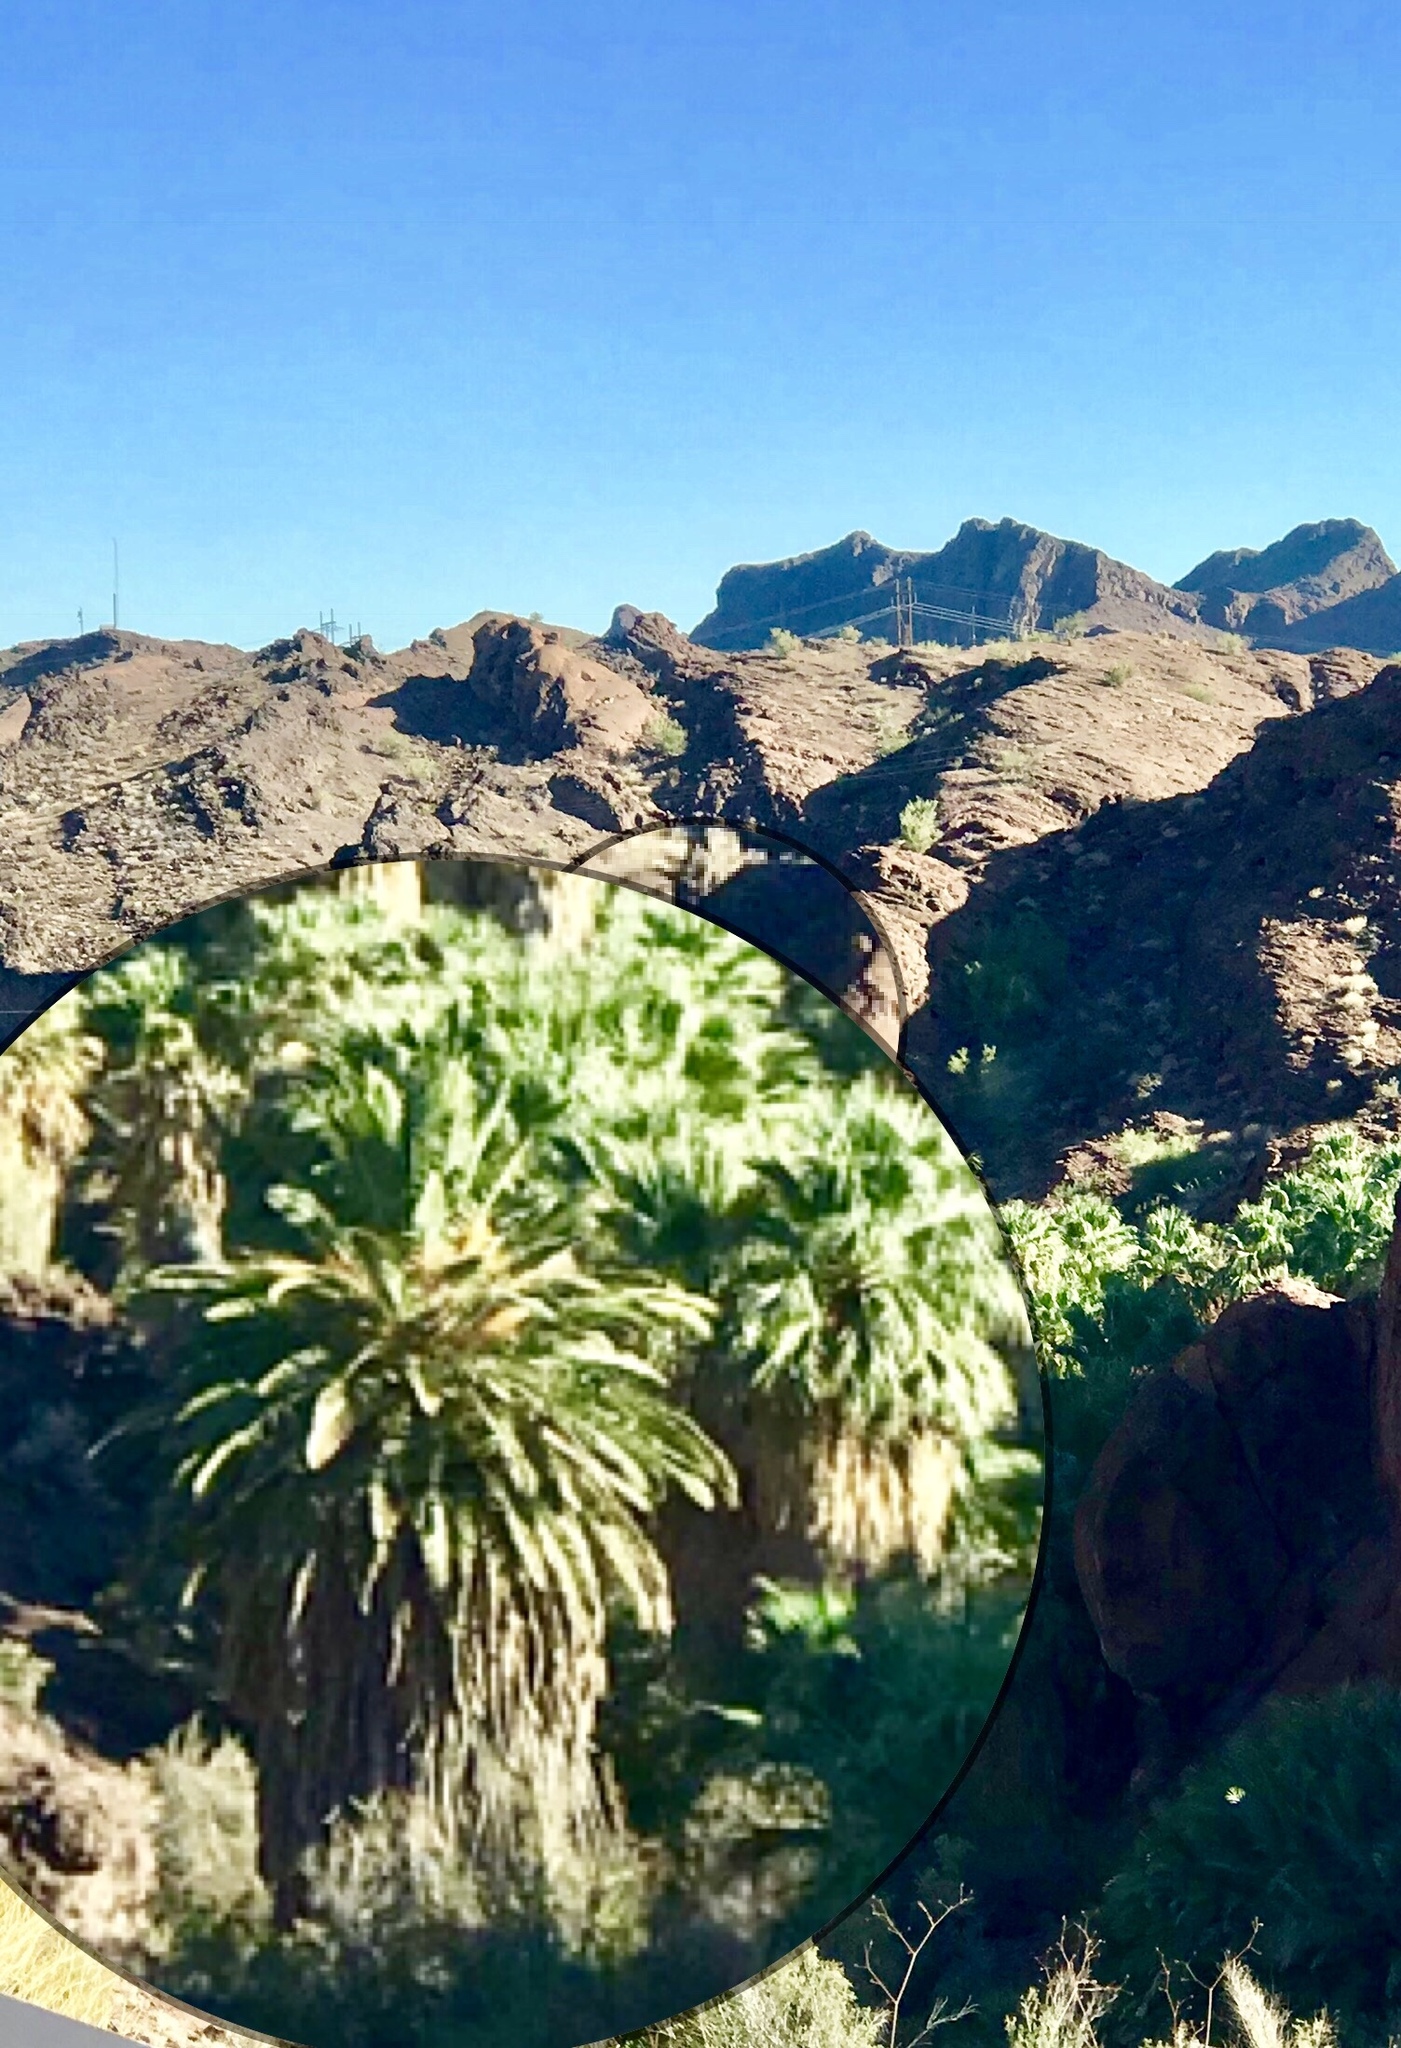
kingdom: Plantae
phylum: Tracheophyta
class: Liliopsida
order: Arecales
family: Arecaceae
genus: Phoenix
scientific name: Phoenix canariensis
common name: Canary island date palm
